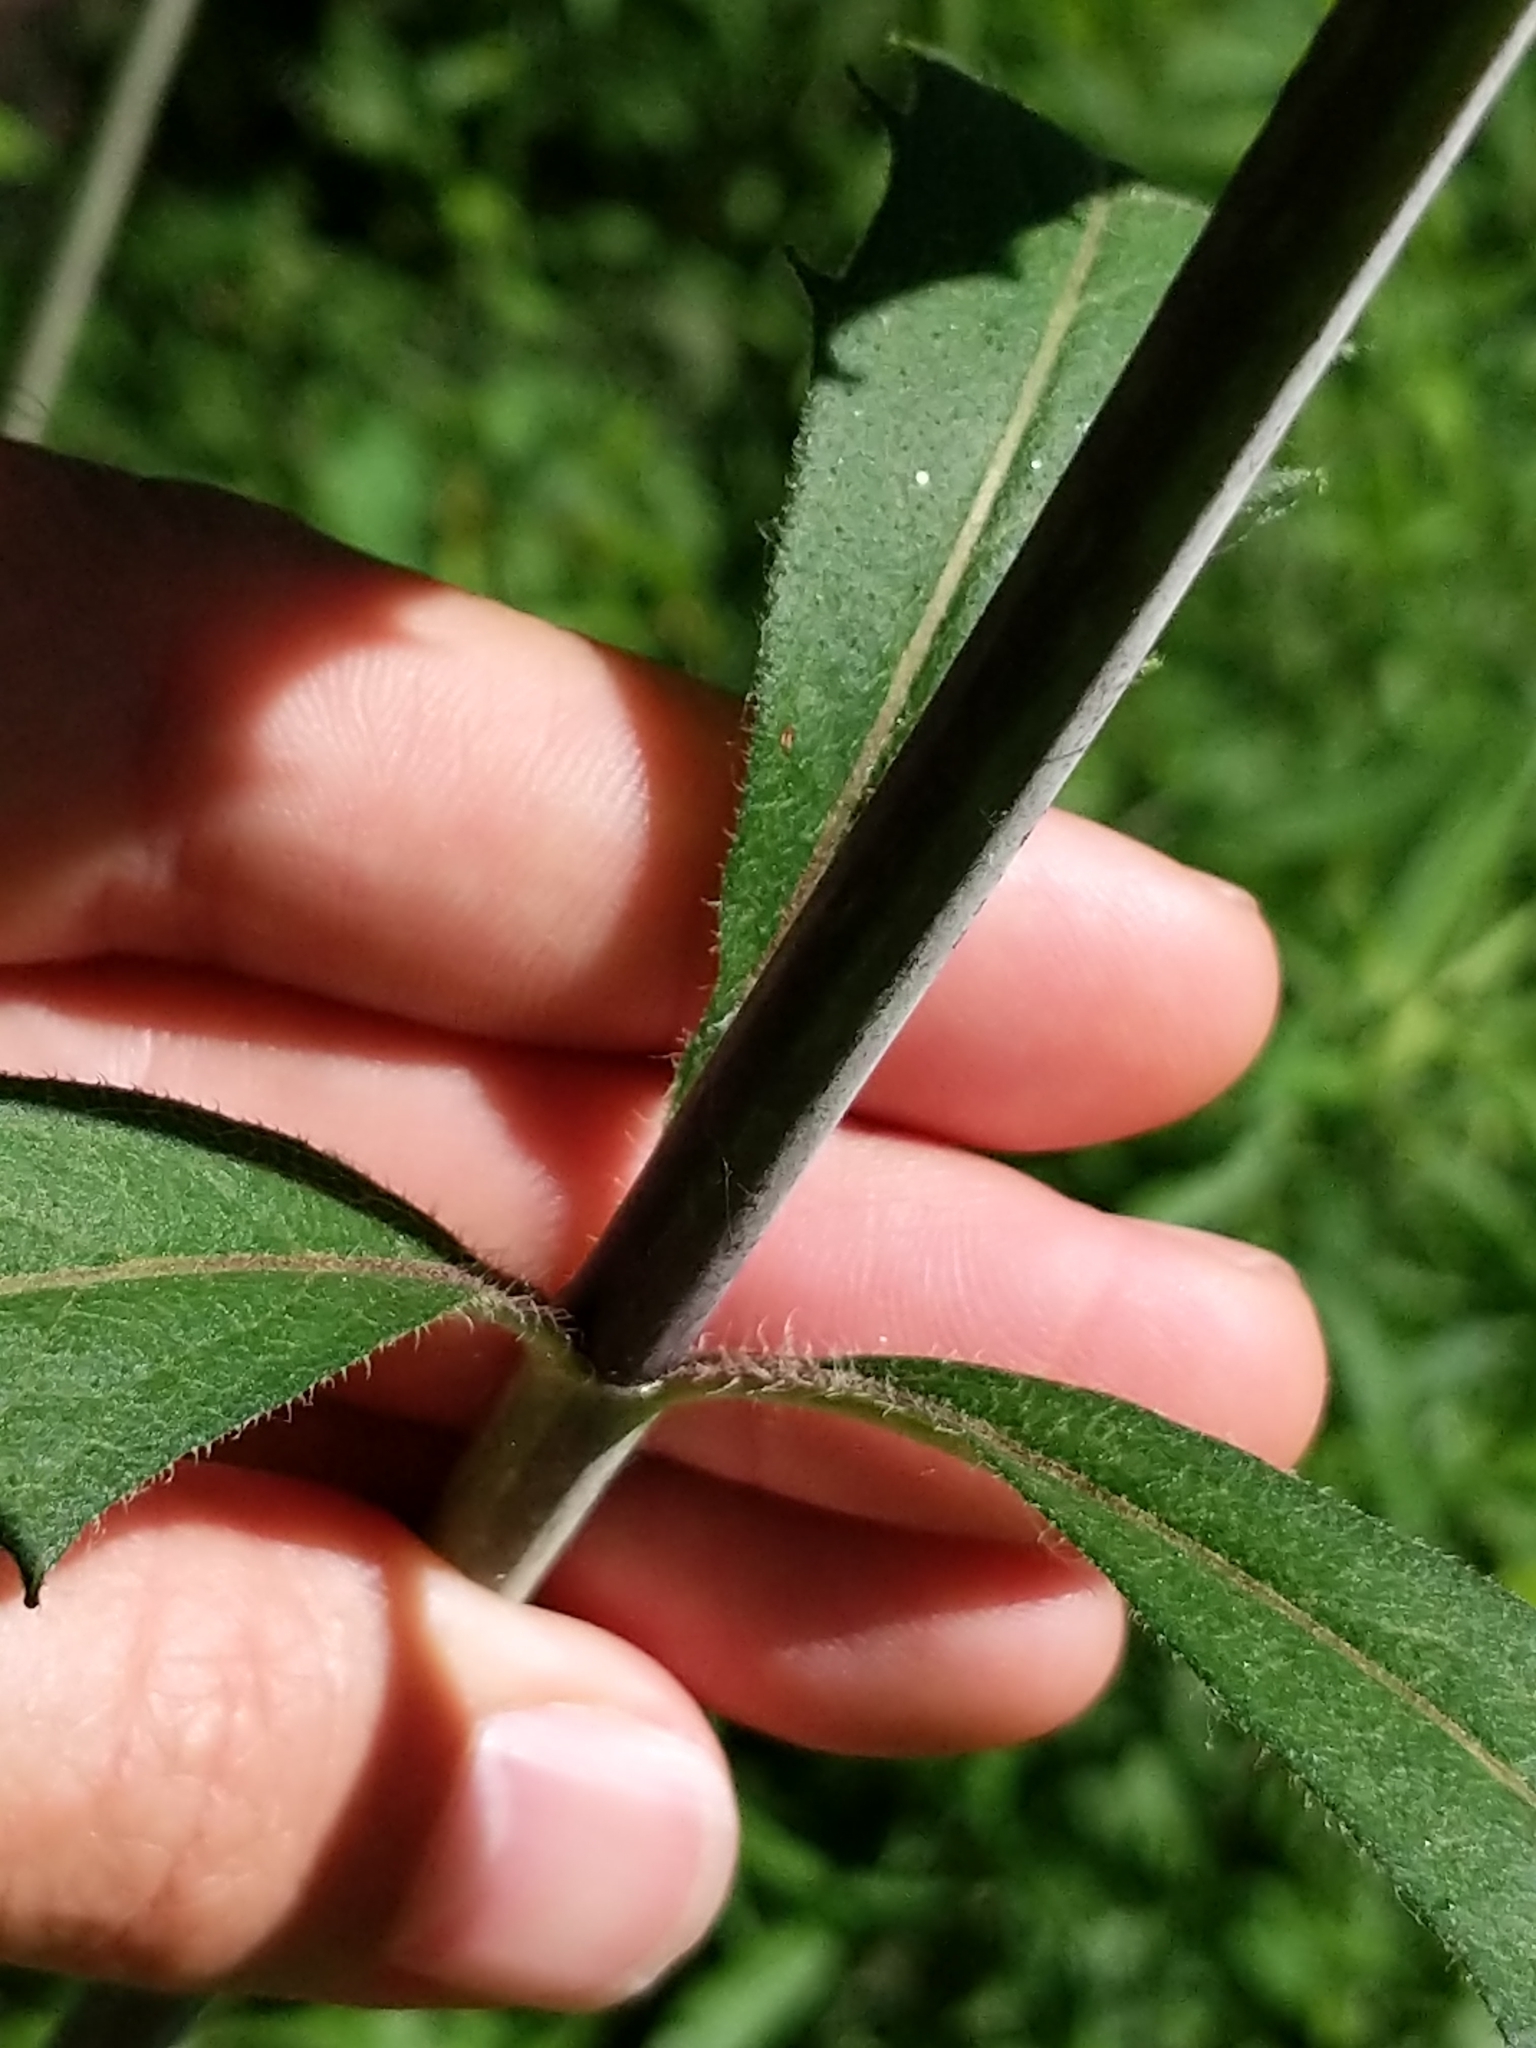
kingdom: Plantae
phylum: Tracheophyta
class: Magnoliopsida
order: Asterales
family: Asteraceae
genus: Silphium
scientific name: Silphium asteriscus
